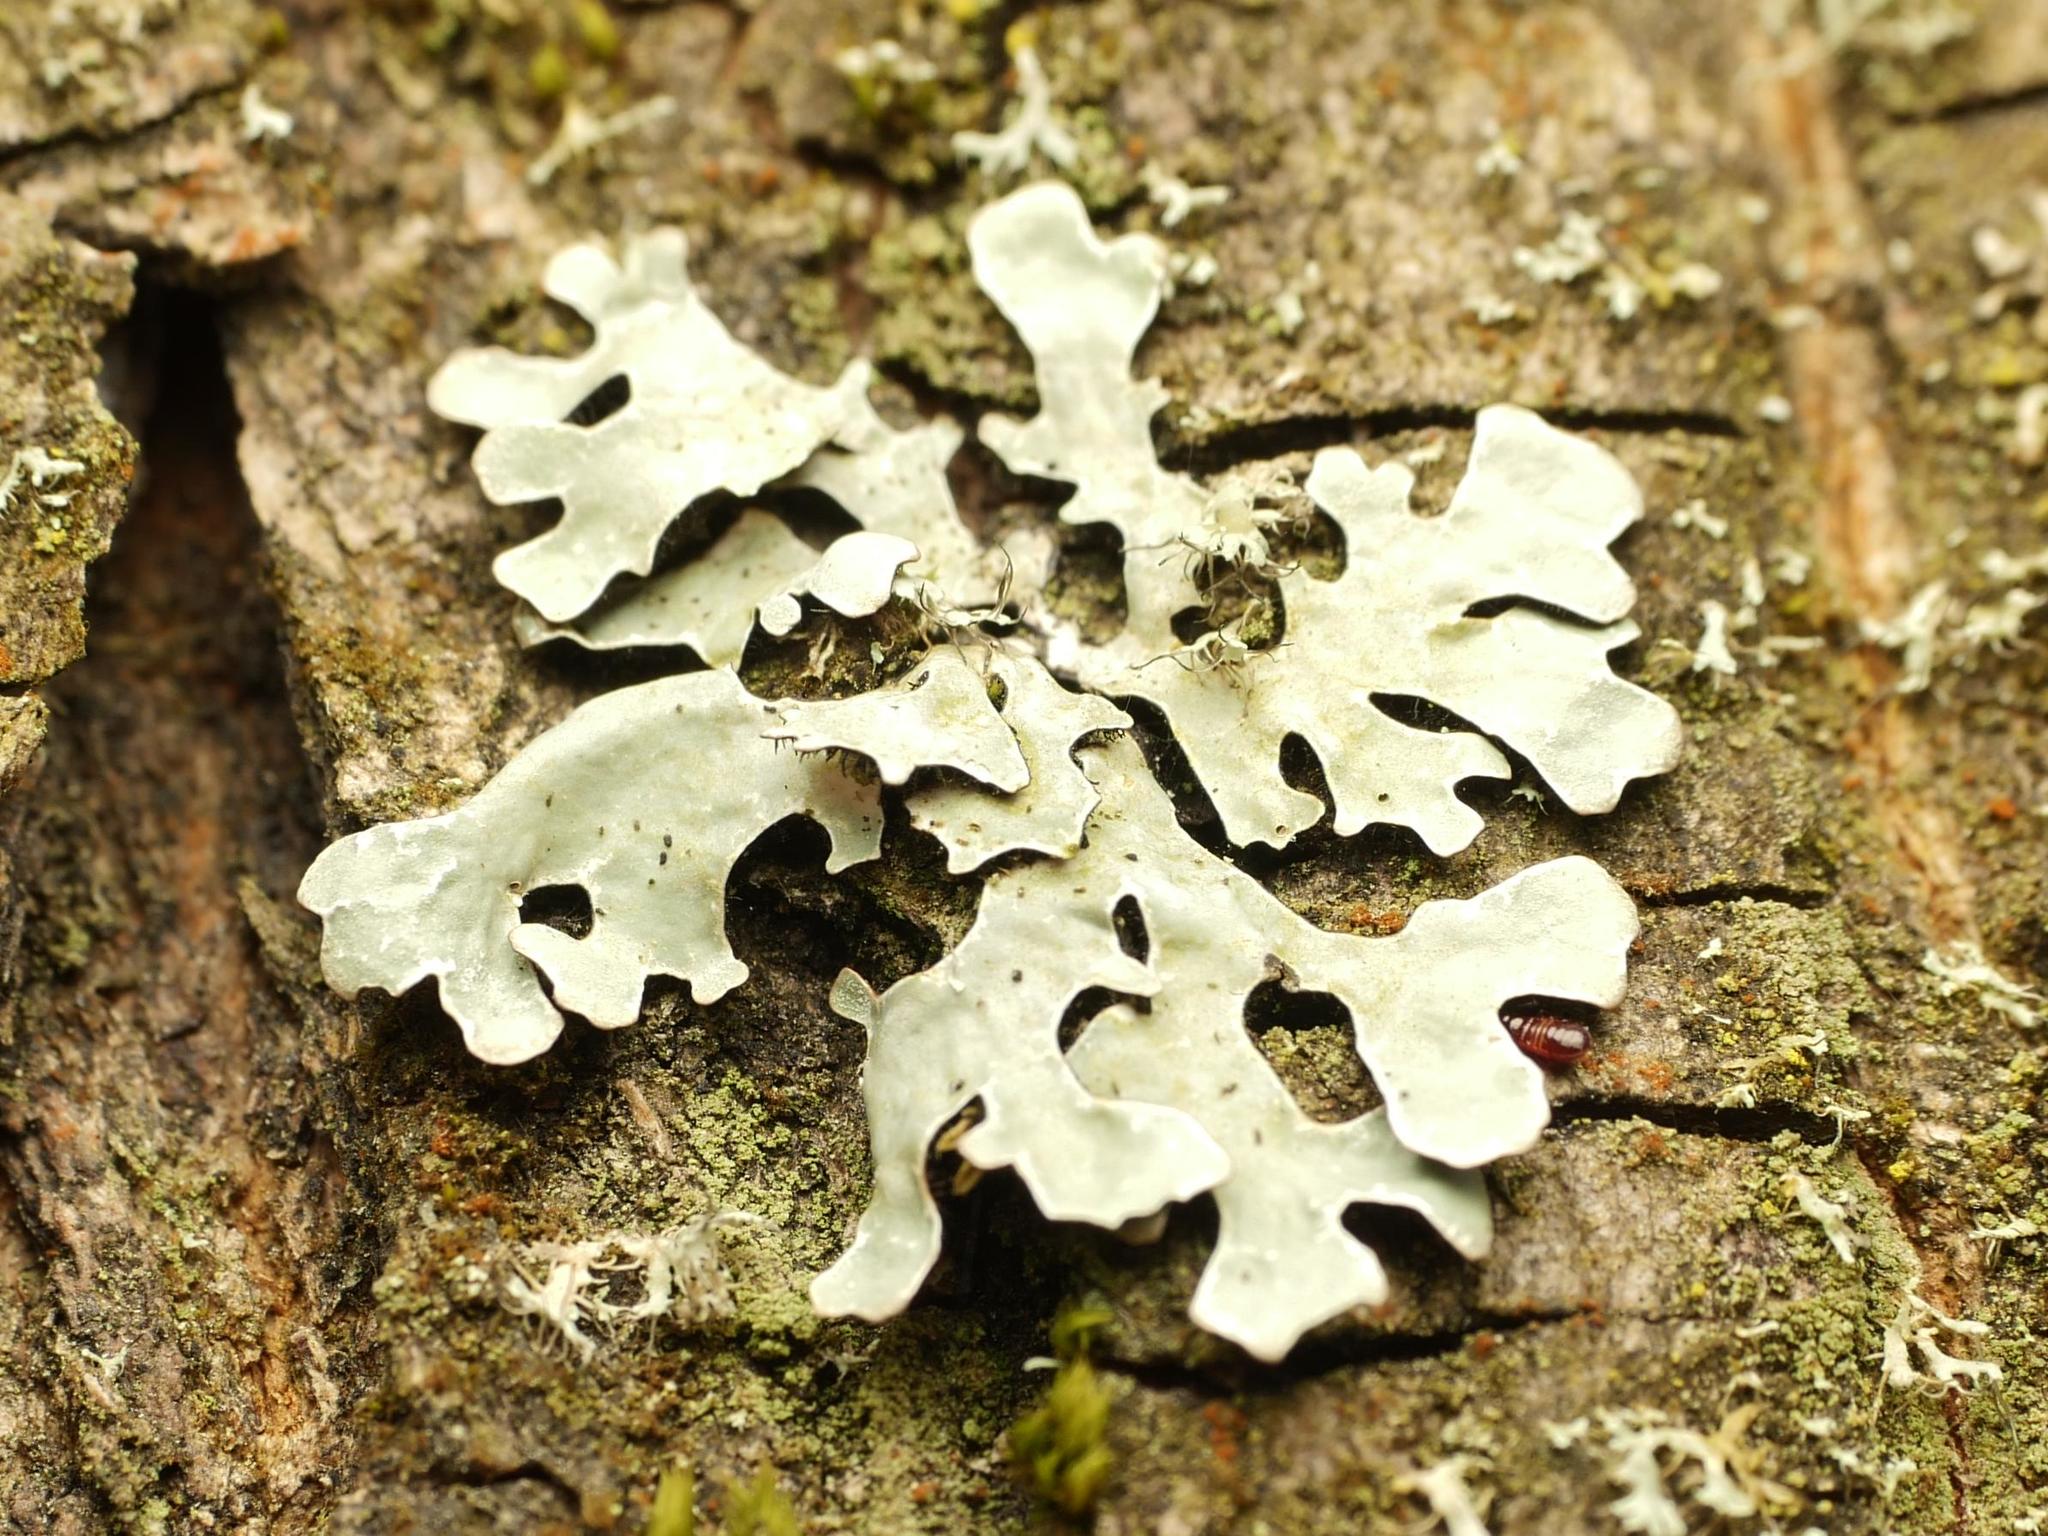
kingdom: Fungi
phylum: Ascomycota
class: Lecanoromycetes
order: Lecanorales
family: Parmeliaceae
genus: Parmelia
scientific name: Parmelia sulcata
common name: Netted shield lichen
